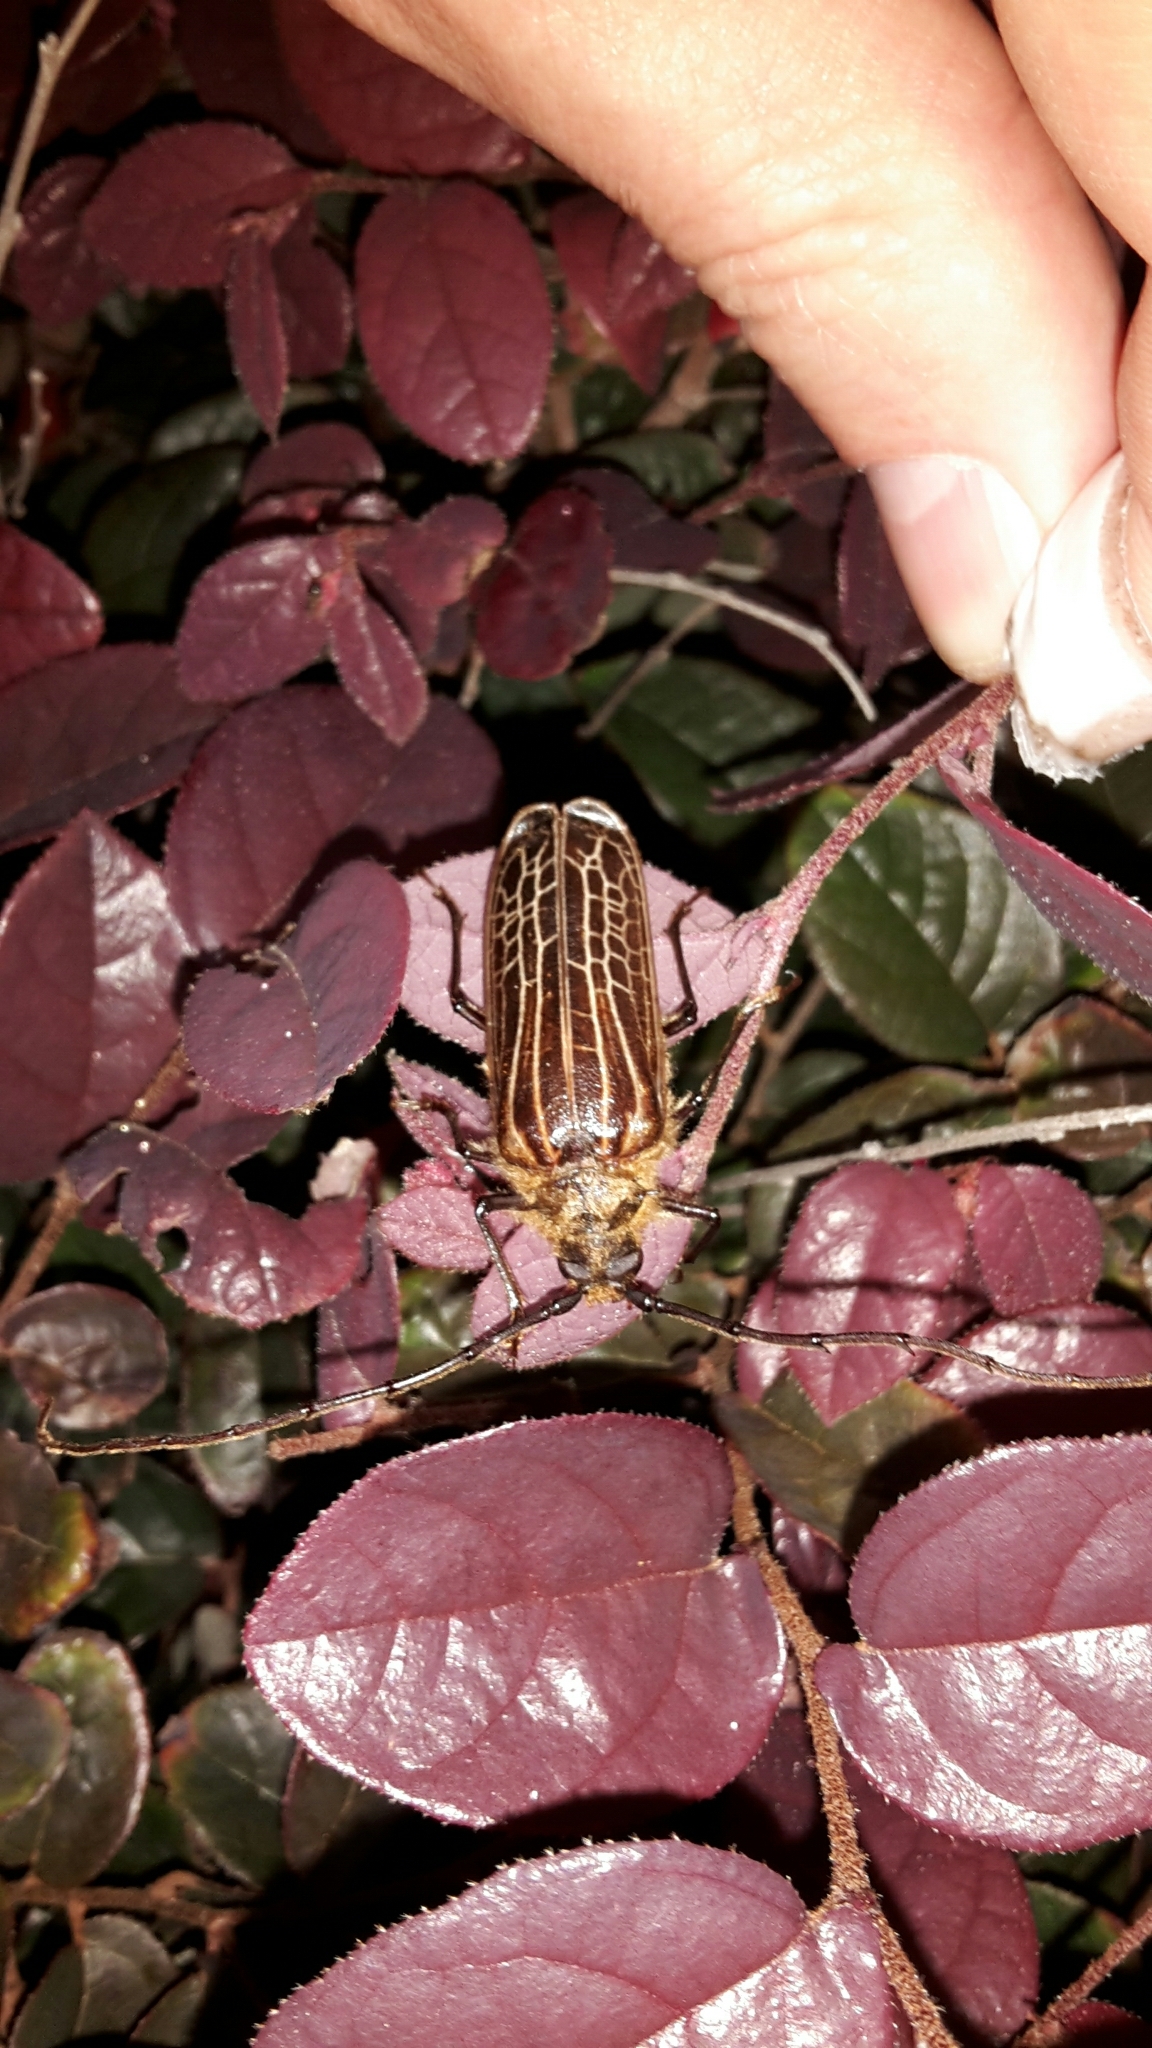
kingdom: Animalia
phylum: Arthropoda
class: Insecta
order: Coleoptera
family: Cerambycidae
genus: Prionoplus
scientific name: Prionoplus reticularis
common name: Huhu beetle
